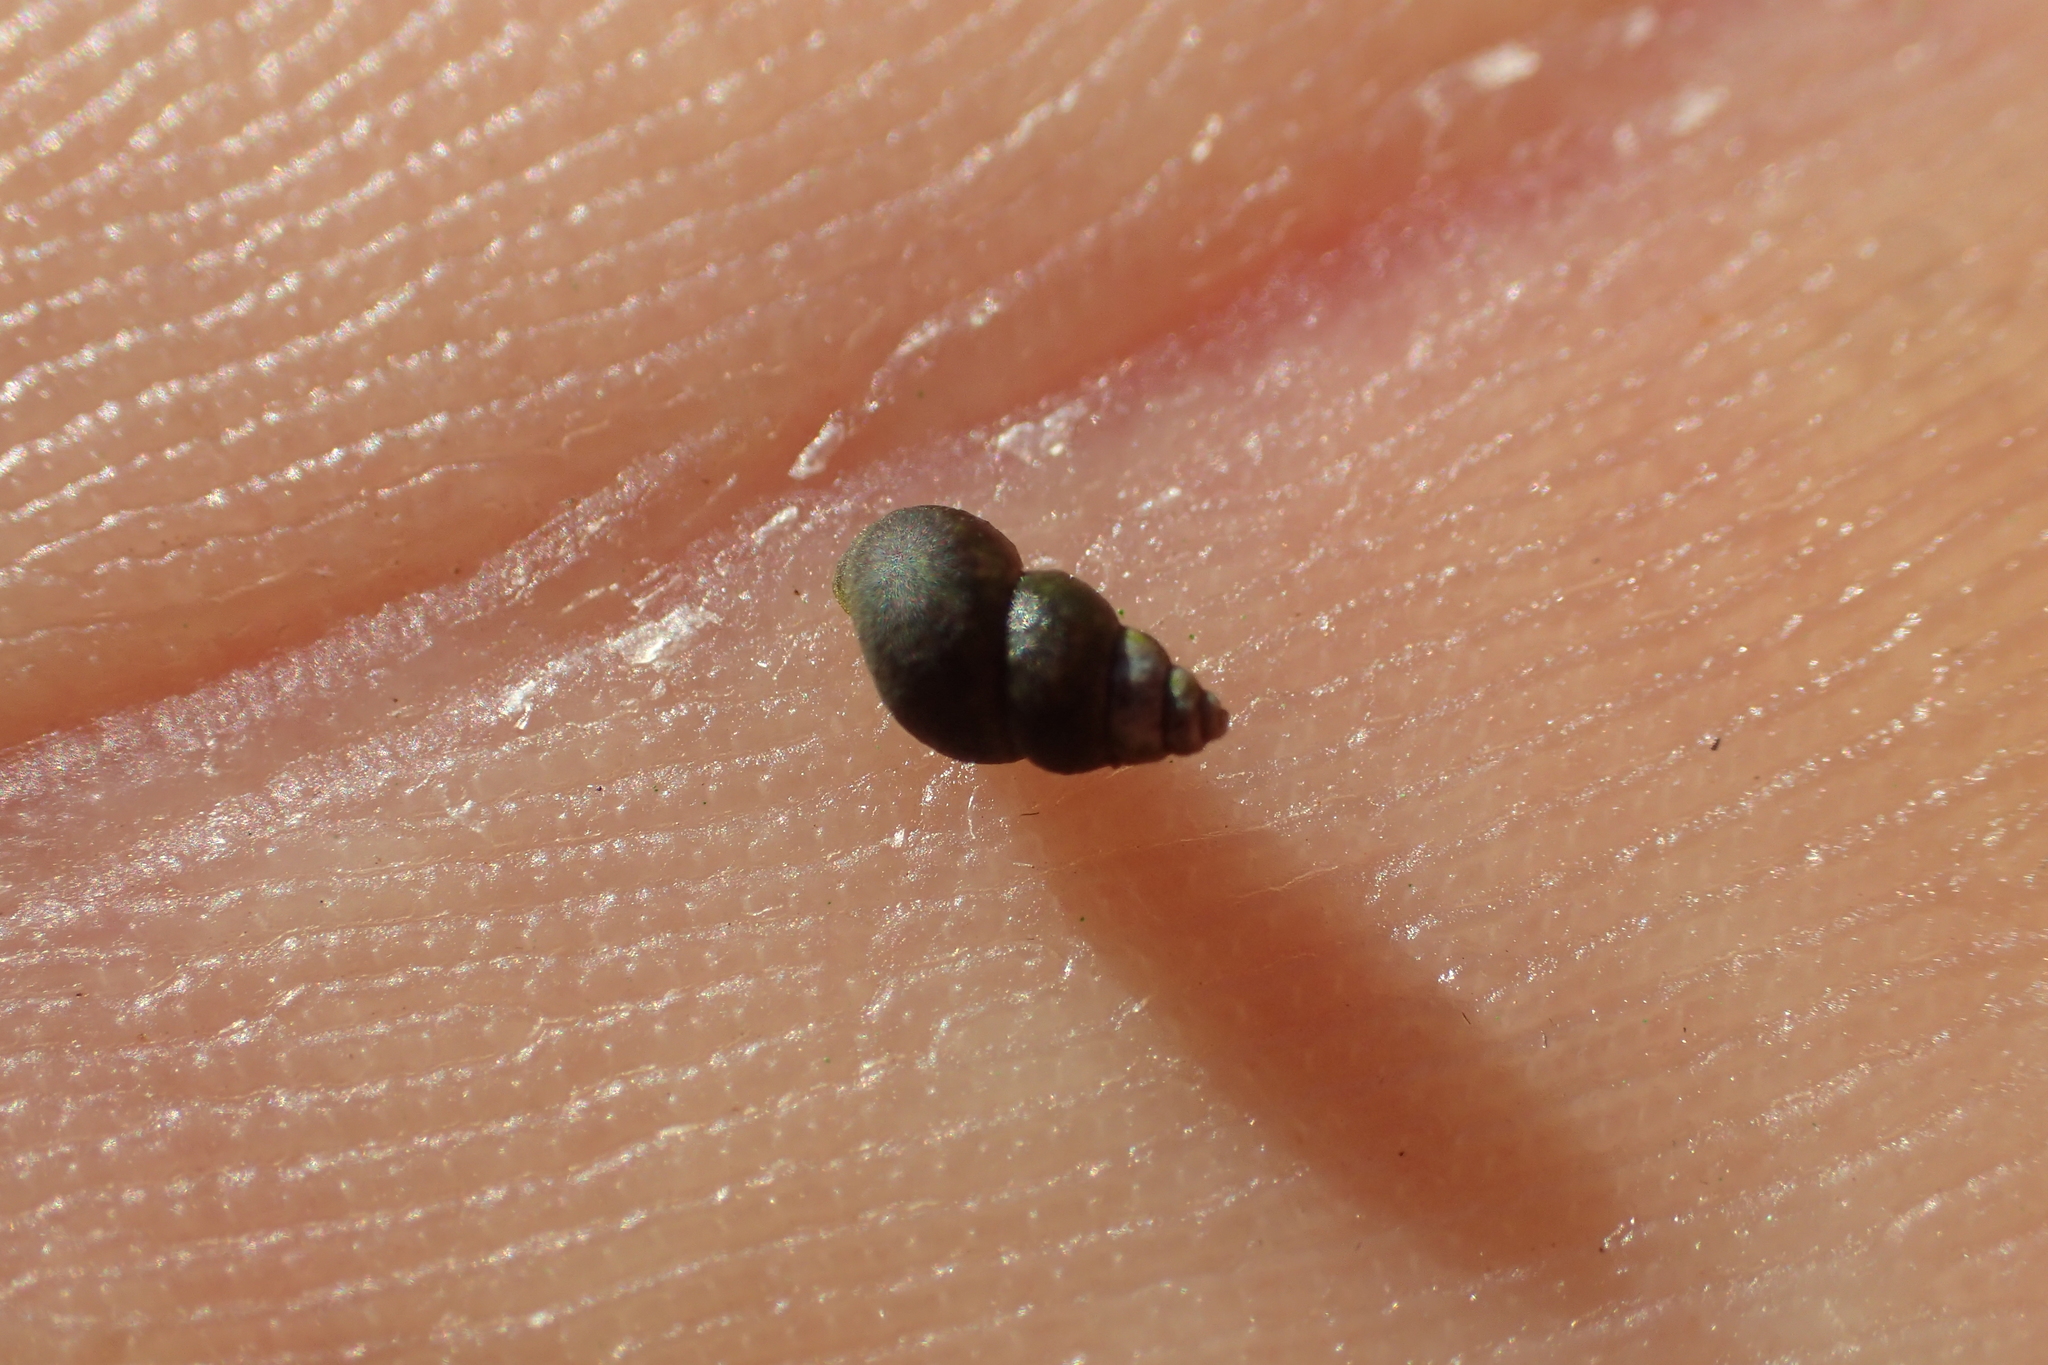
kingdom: Animalia
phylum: Mollusca
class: Gastropoda
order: Littorinimorpha
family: Tateidae
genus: Potamopyrgus
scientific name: Potamopyrgus antipodarum
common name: Jenkins' spire snail
